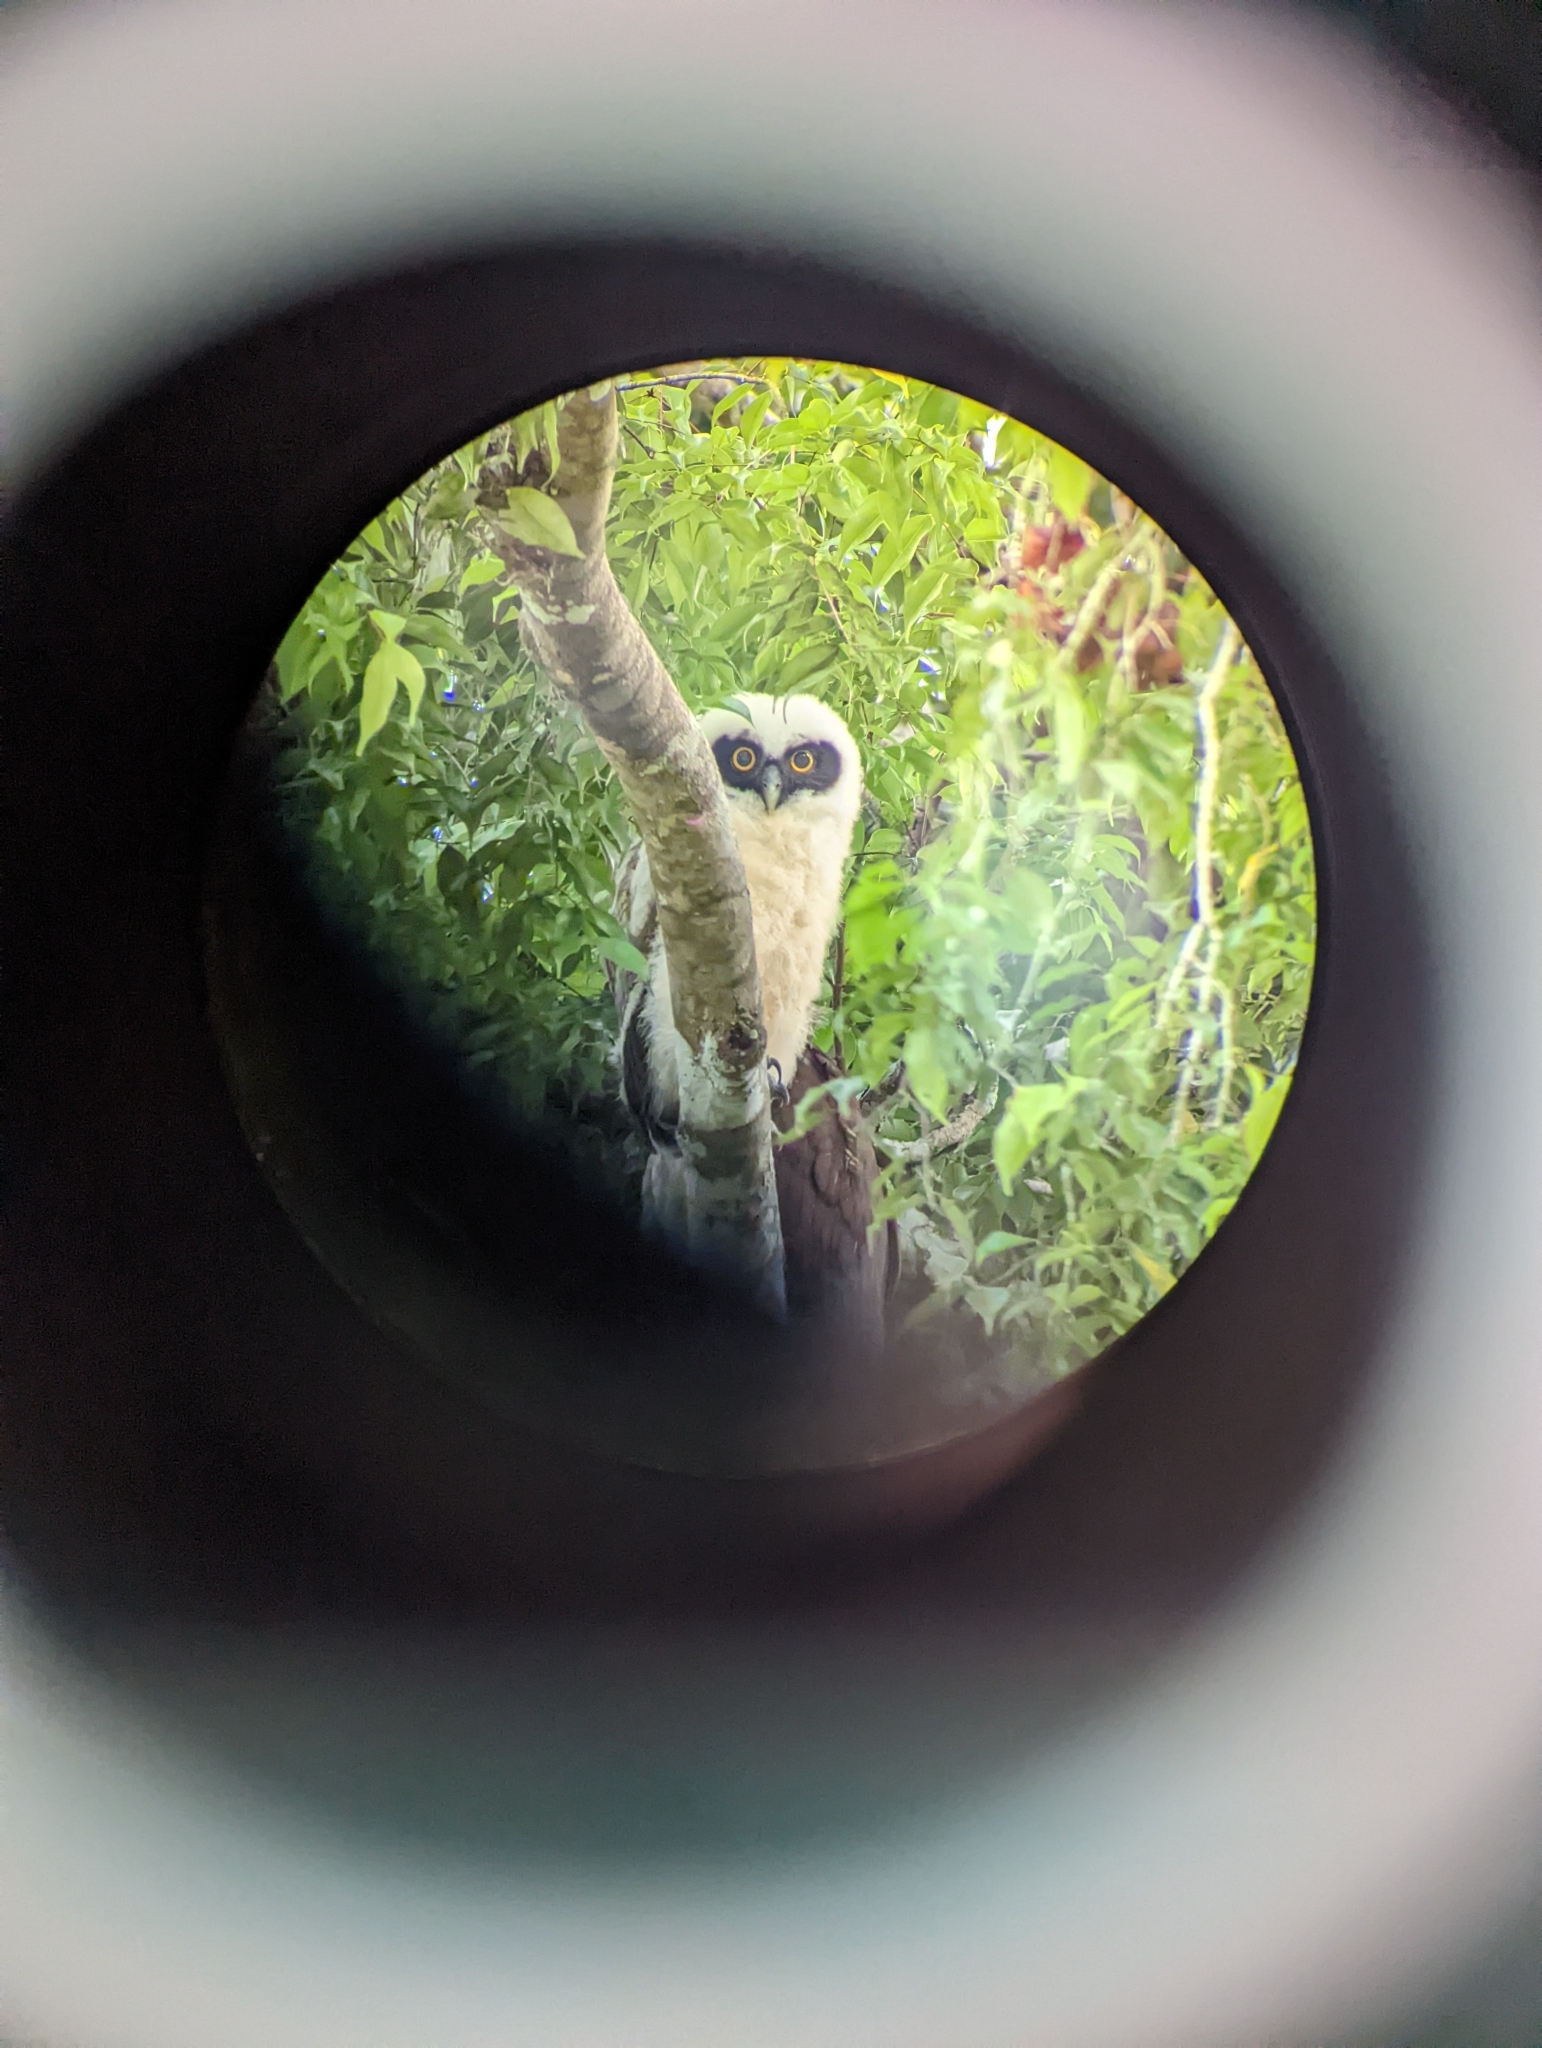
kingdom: Animalia
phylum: Chordata
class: Aves
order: Strigiformes
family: Strigidae
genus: Pulsatrix
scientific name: Pulsatrix perspicillata
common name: Spectacled owl
